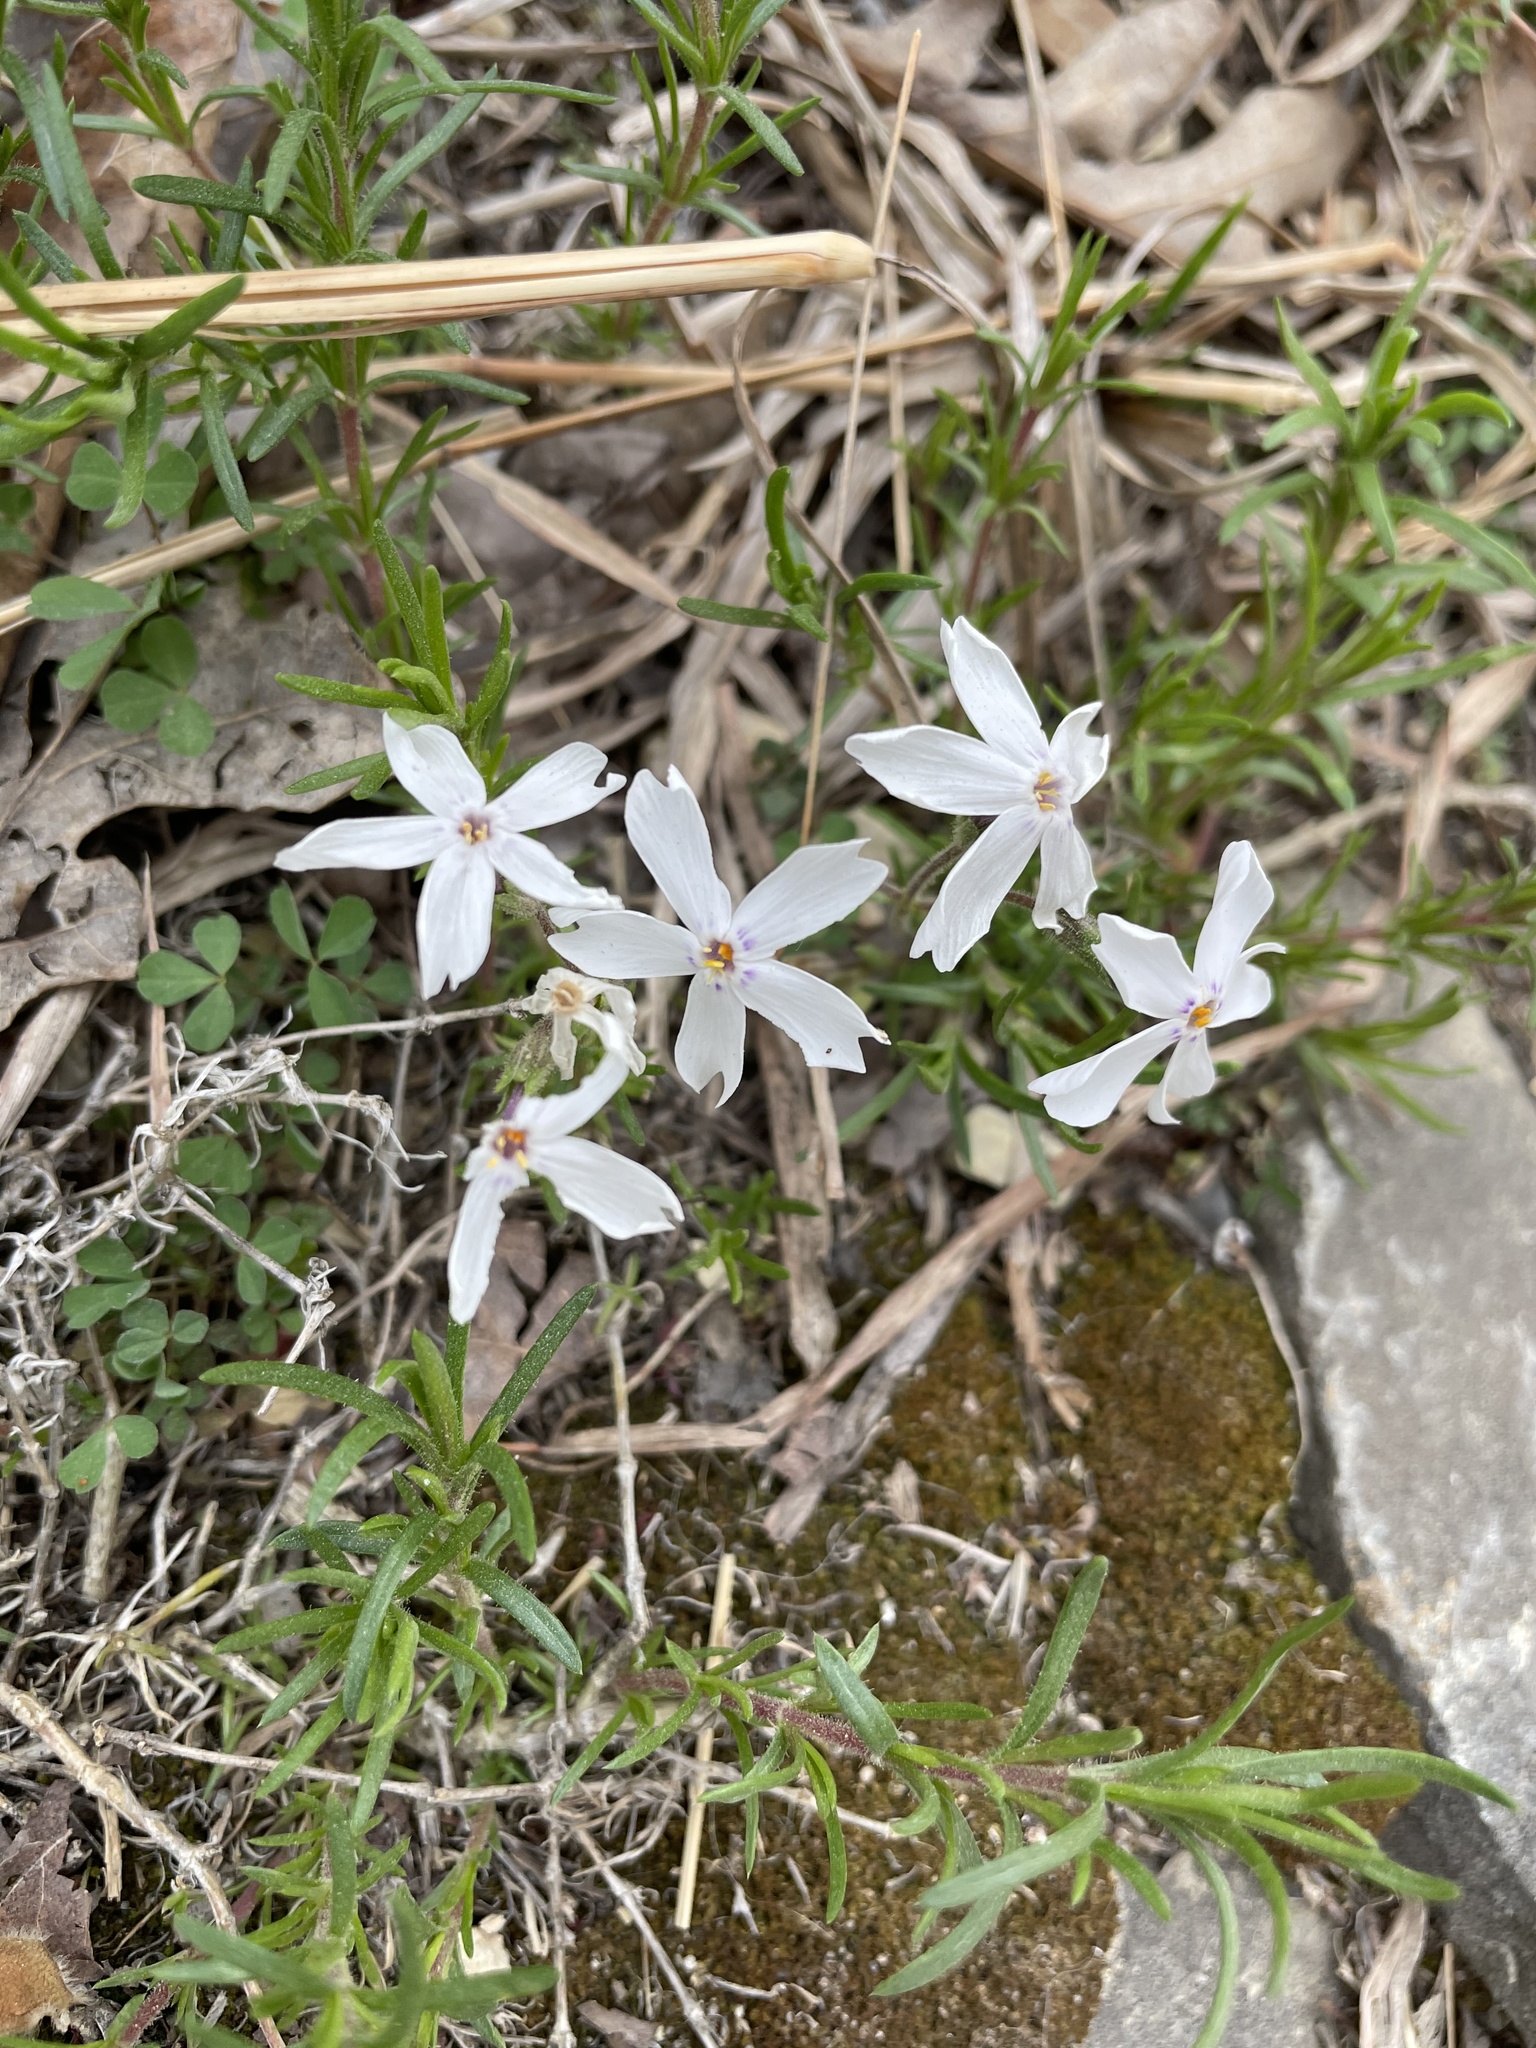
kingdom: Plantae
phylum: Tracheophyta
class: Magnoliopsida
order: Ericales
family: Polemoniaceae
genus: Phlox
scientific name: Phlox subulata
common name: Moss phlox
